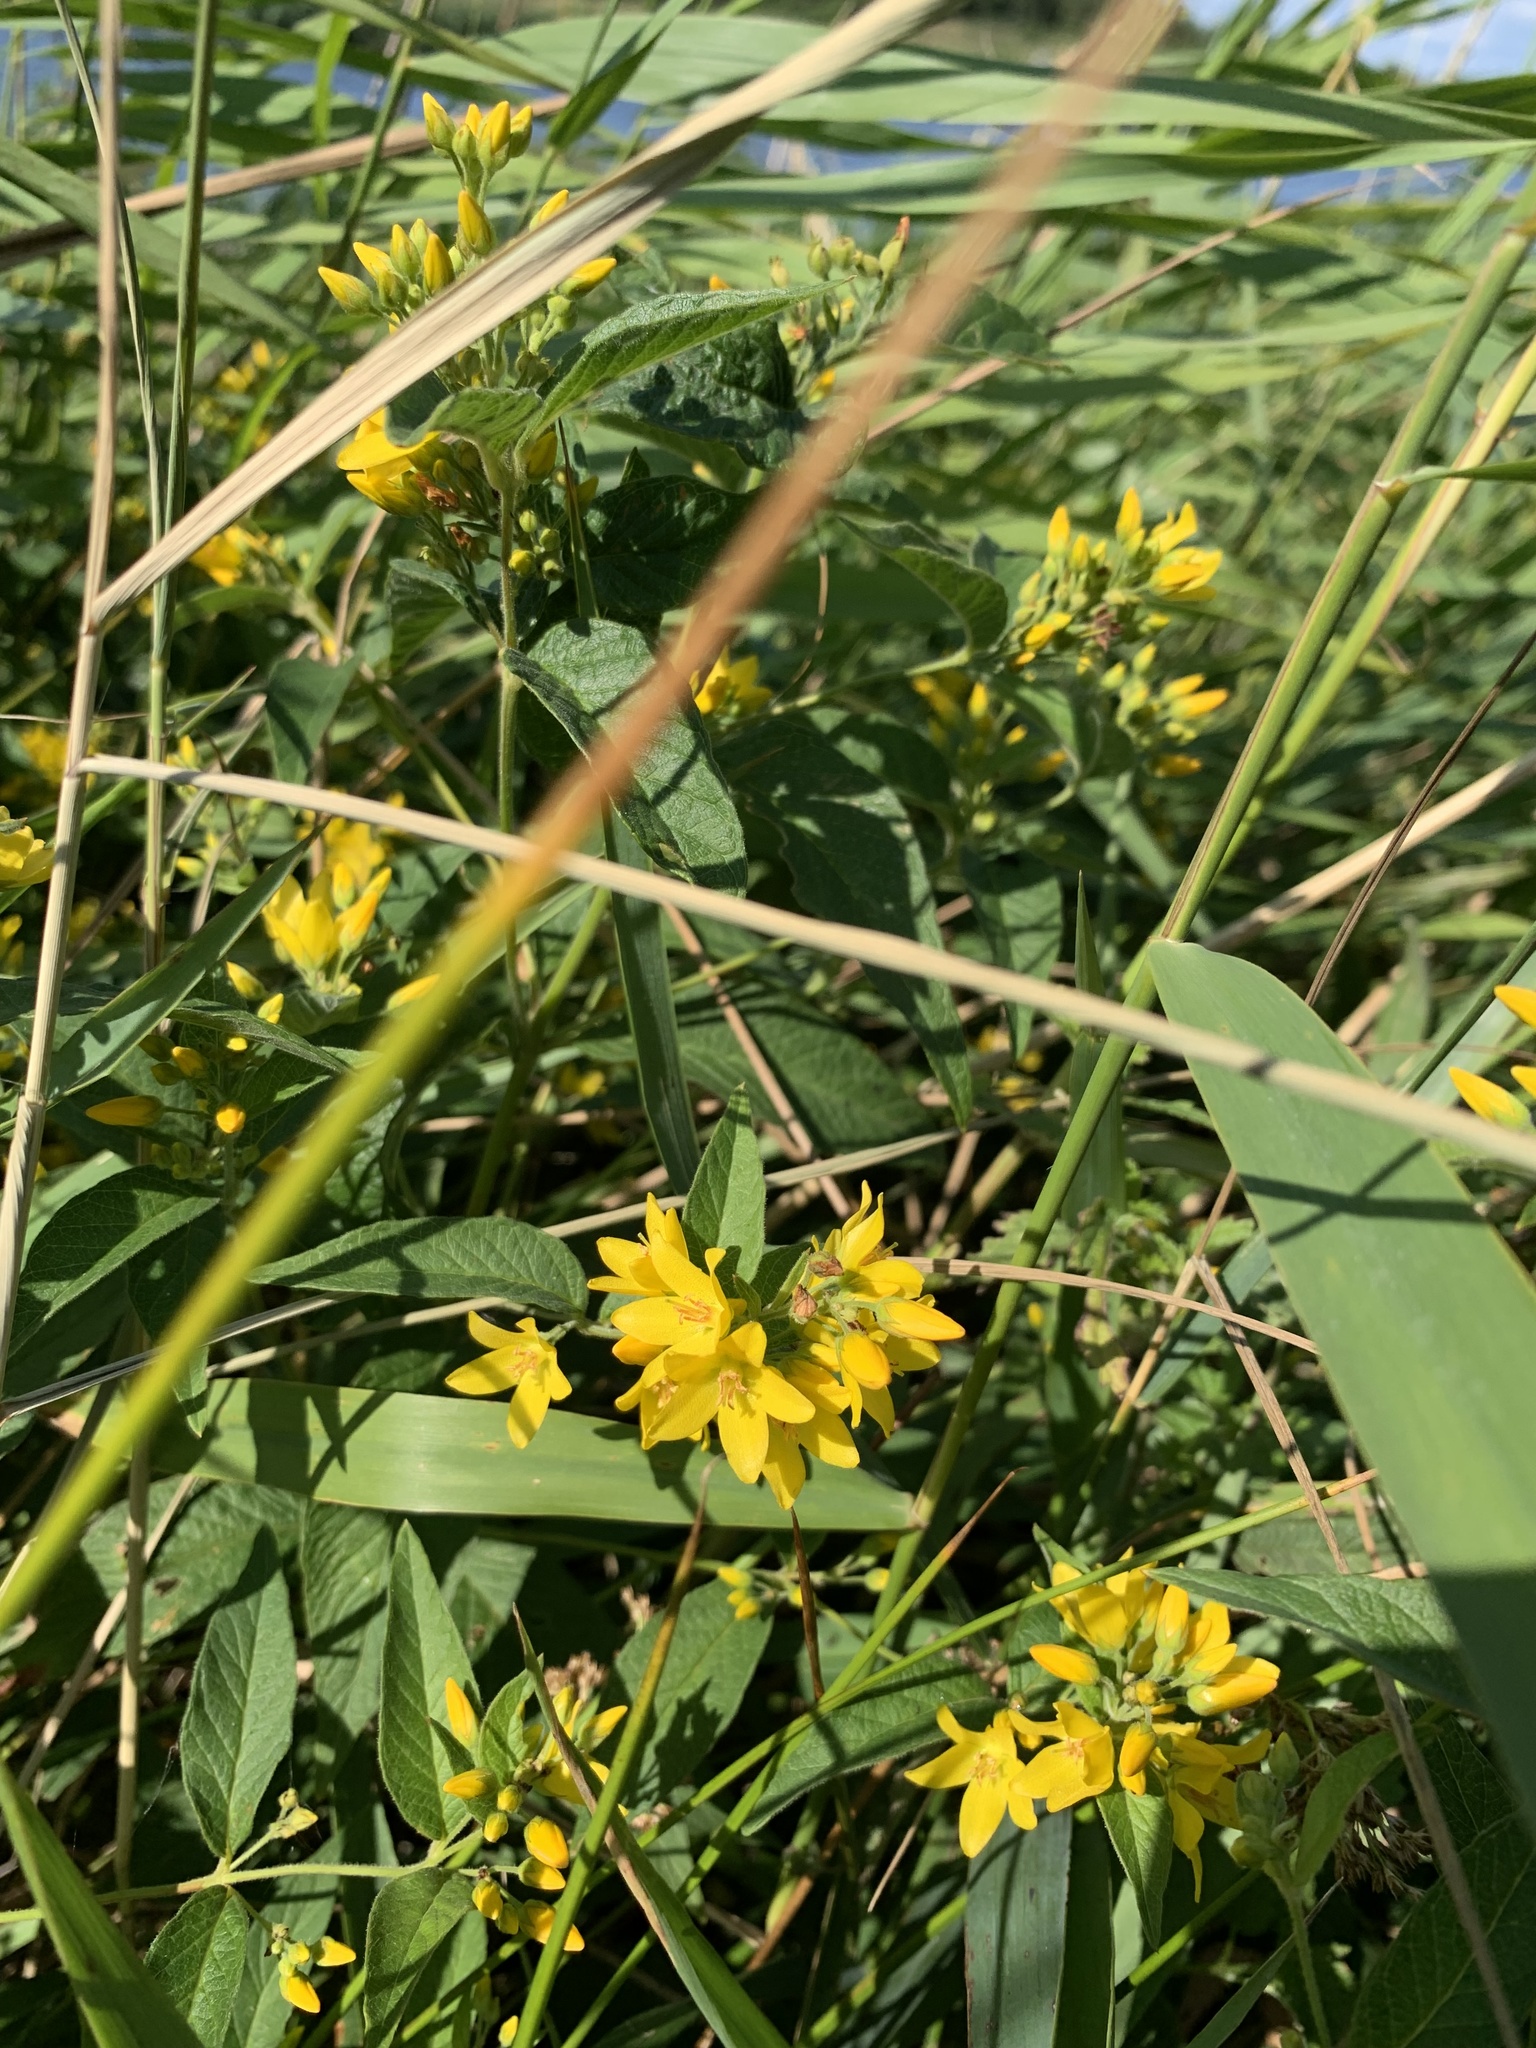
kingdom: Plantae
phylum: Tracheophyta
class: Magnoliopsida
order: Ericales
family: Primulaceae
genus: Lysimachia
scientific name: Lysimachia vulgaris
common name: Yellow loosestrife
